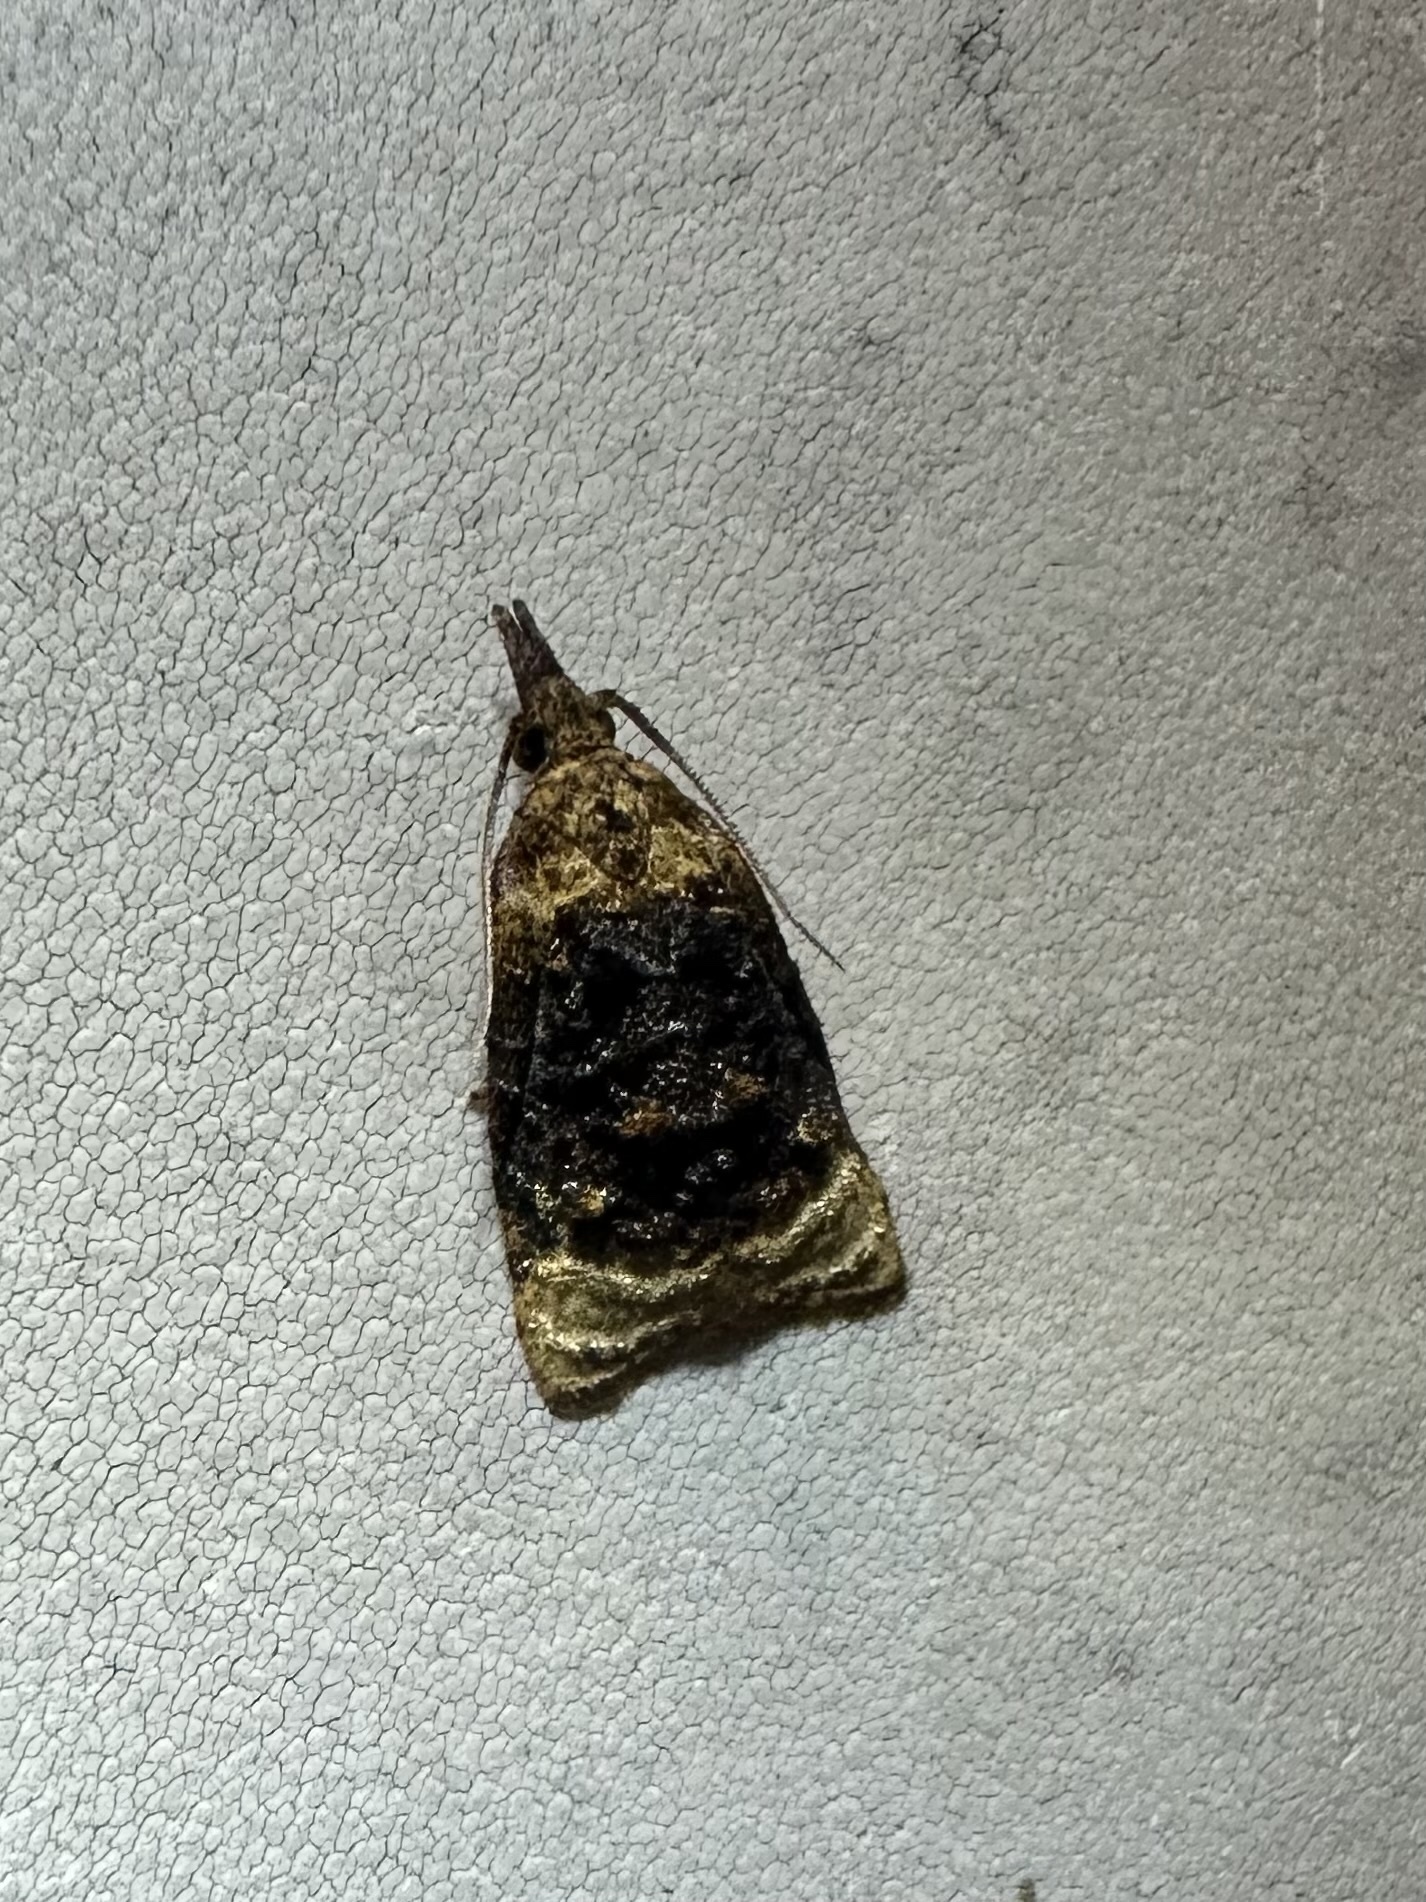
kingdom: Animalia
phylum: Arthropoda
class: Insecta
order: Lepidoptera
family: Tortricidae
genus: Platynota
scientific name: Platynota flavedana
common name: Black-shaded platynota moth
